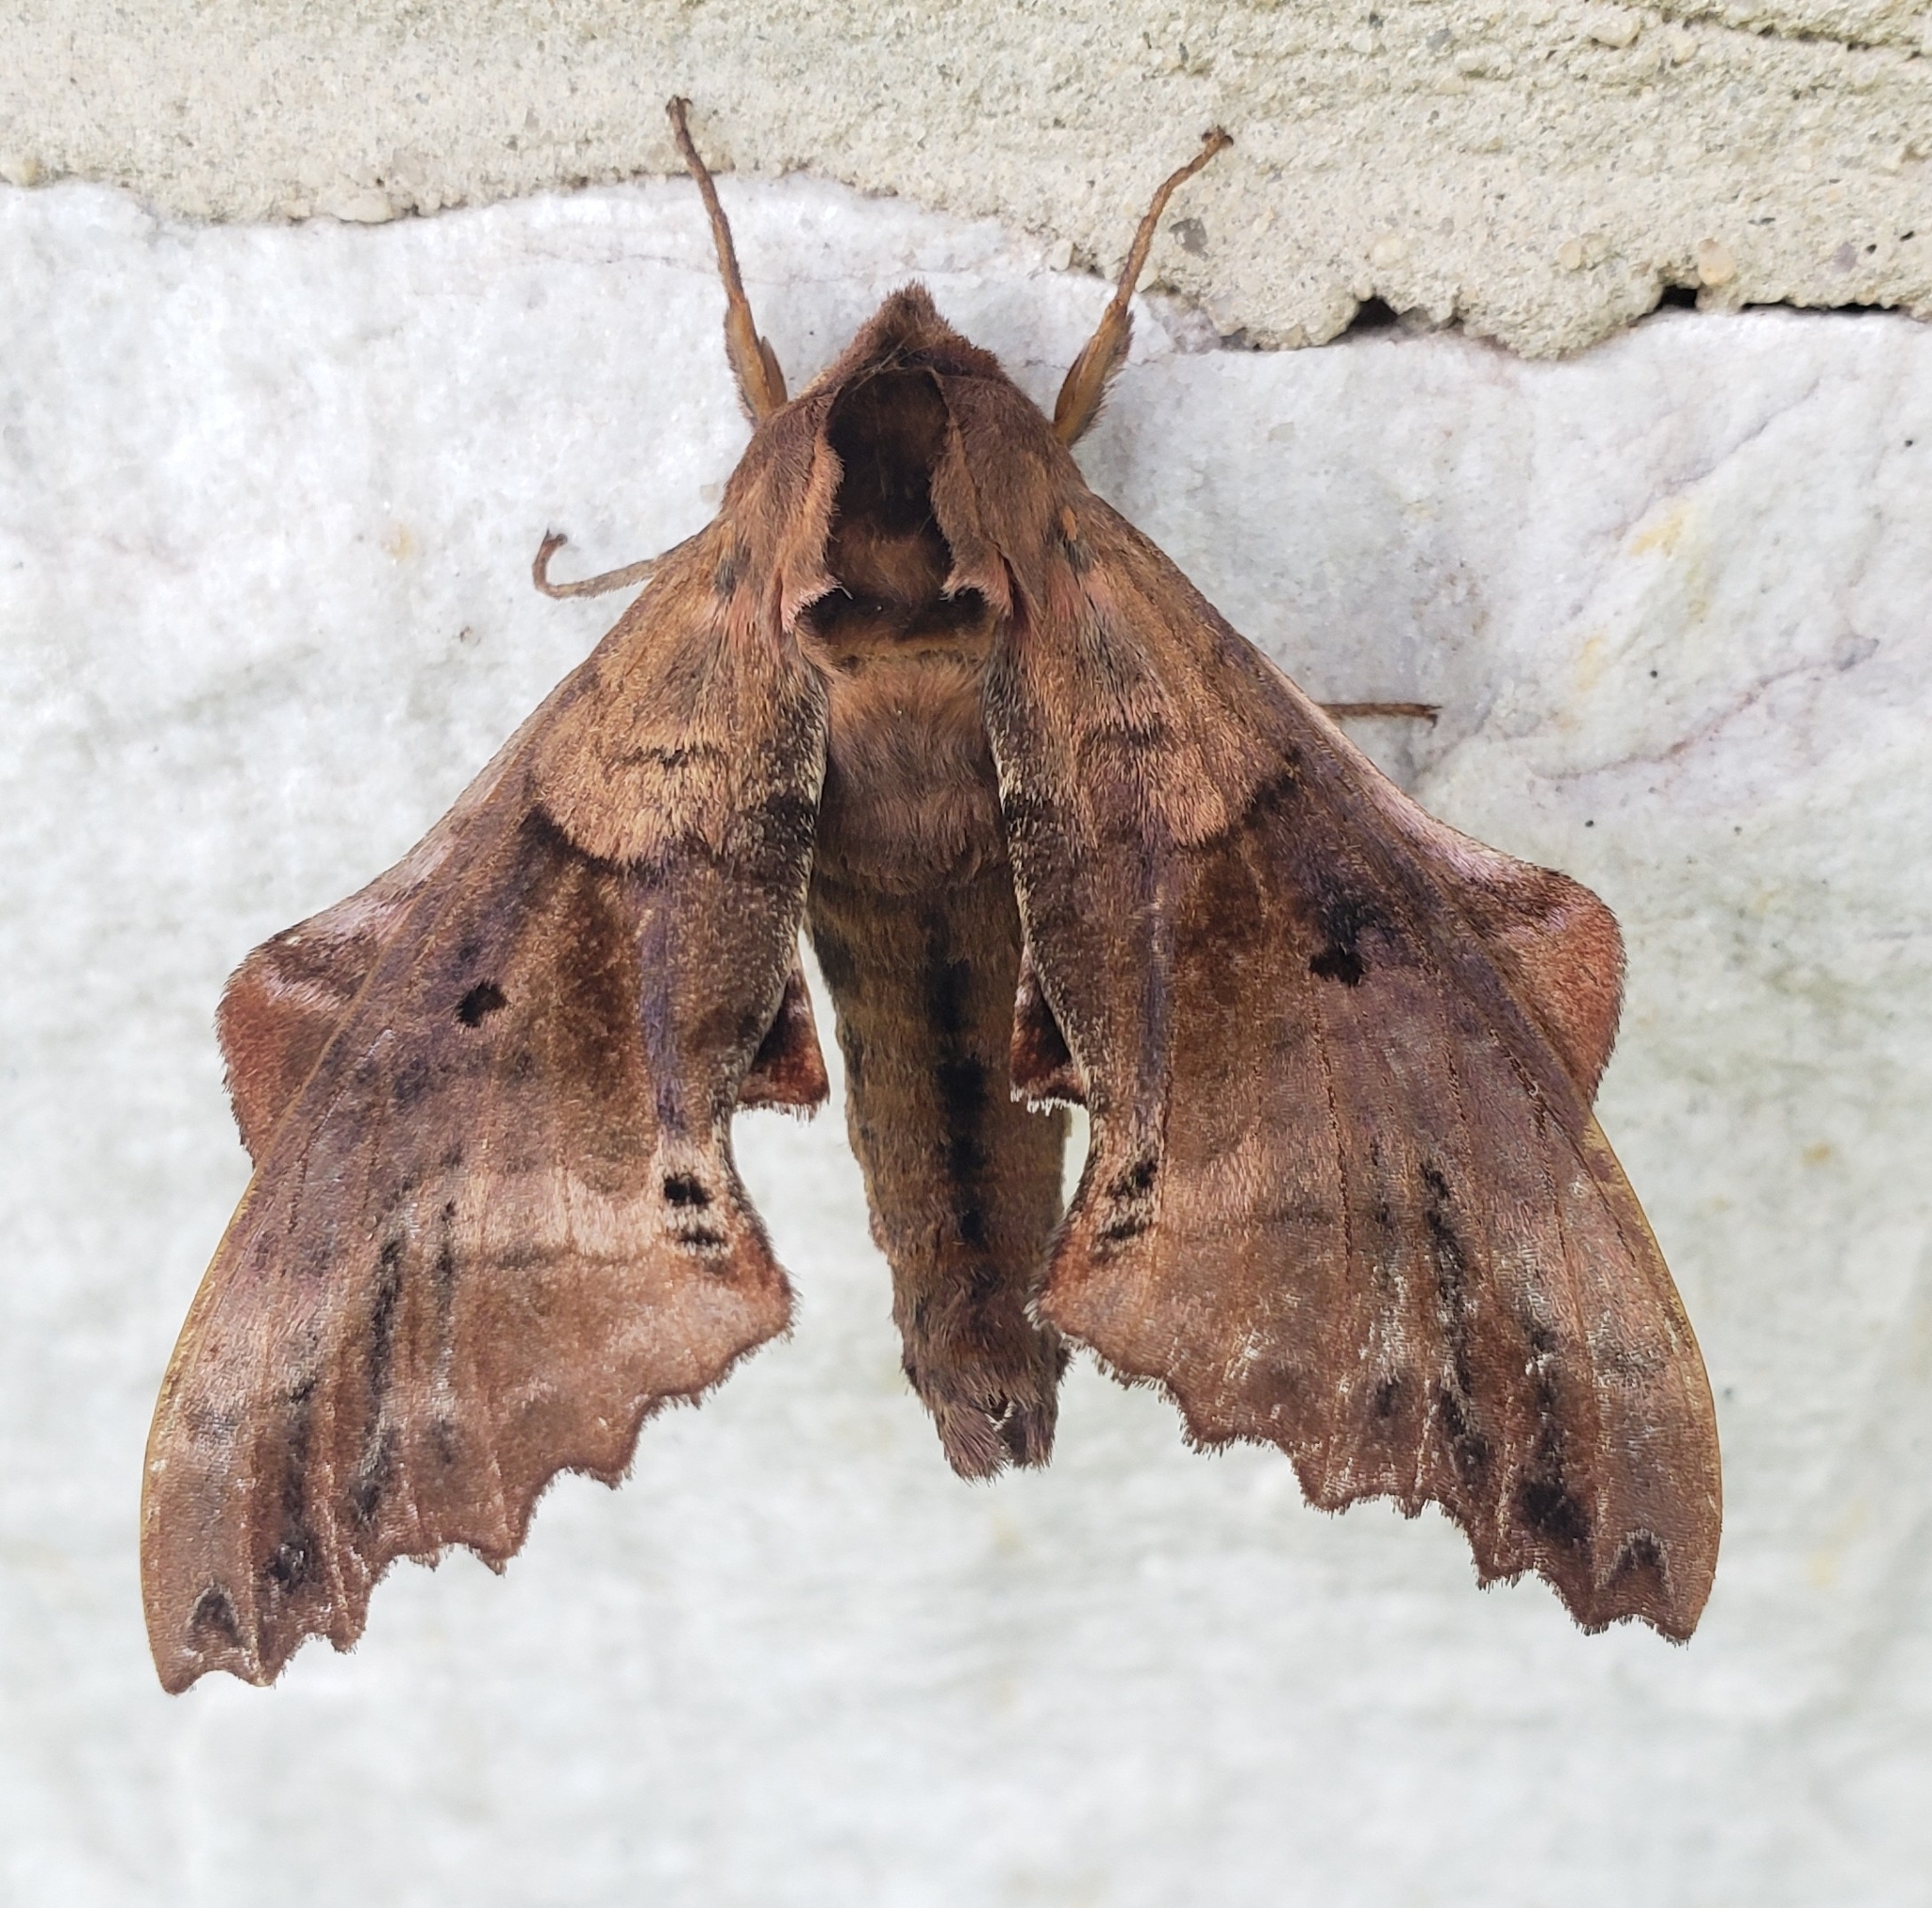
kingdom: Animalia
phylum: Arthropoda
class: Insecta
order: Lepidoptera
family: Sphingidae
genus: Paonias
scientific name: Paonias excaecata
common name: Blind-eyed sphinx
